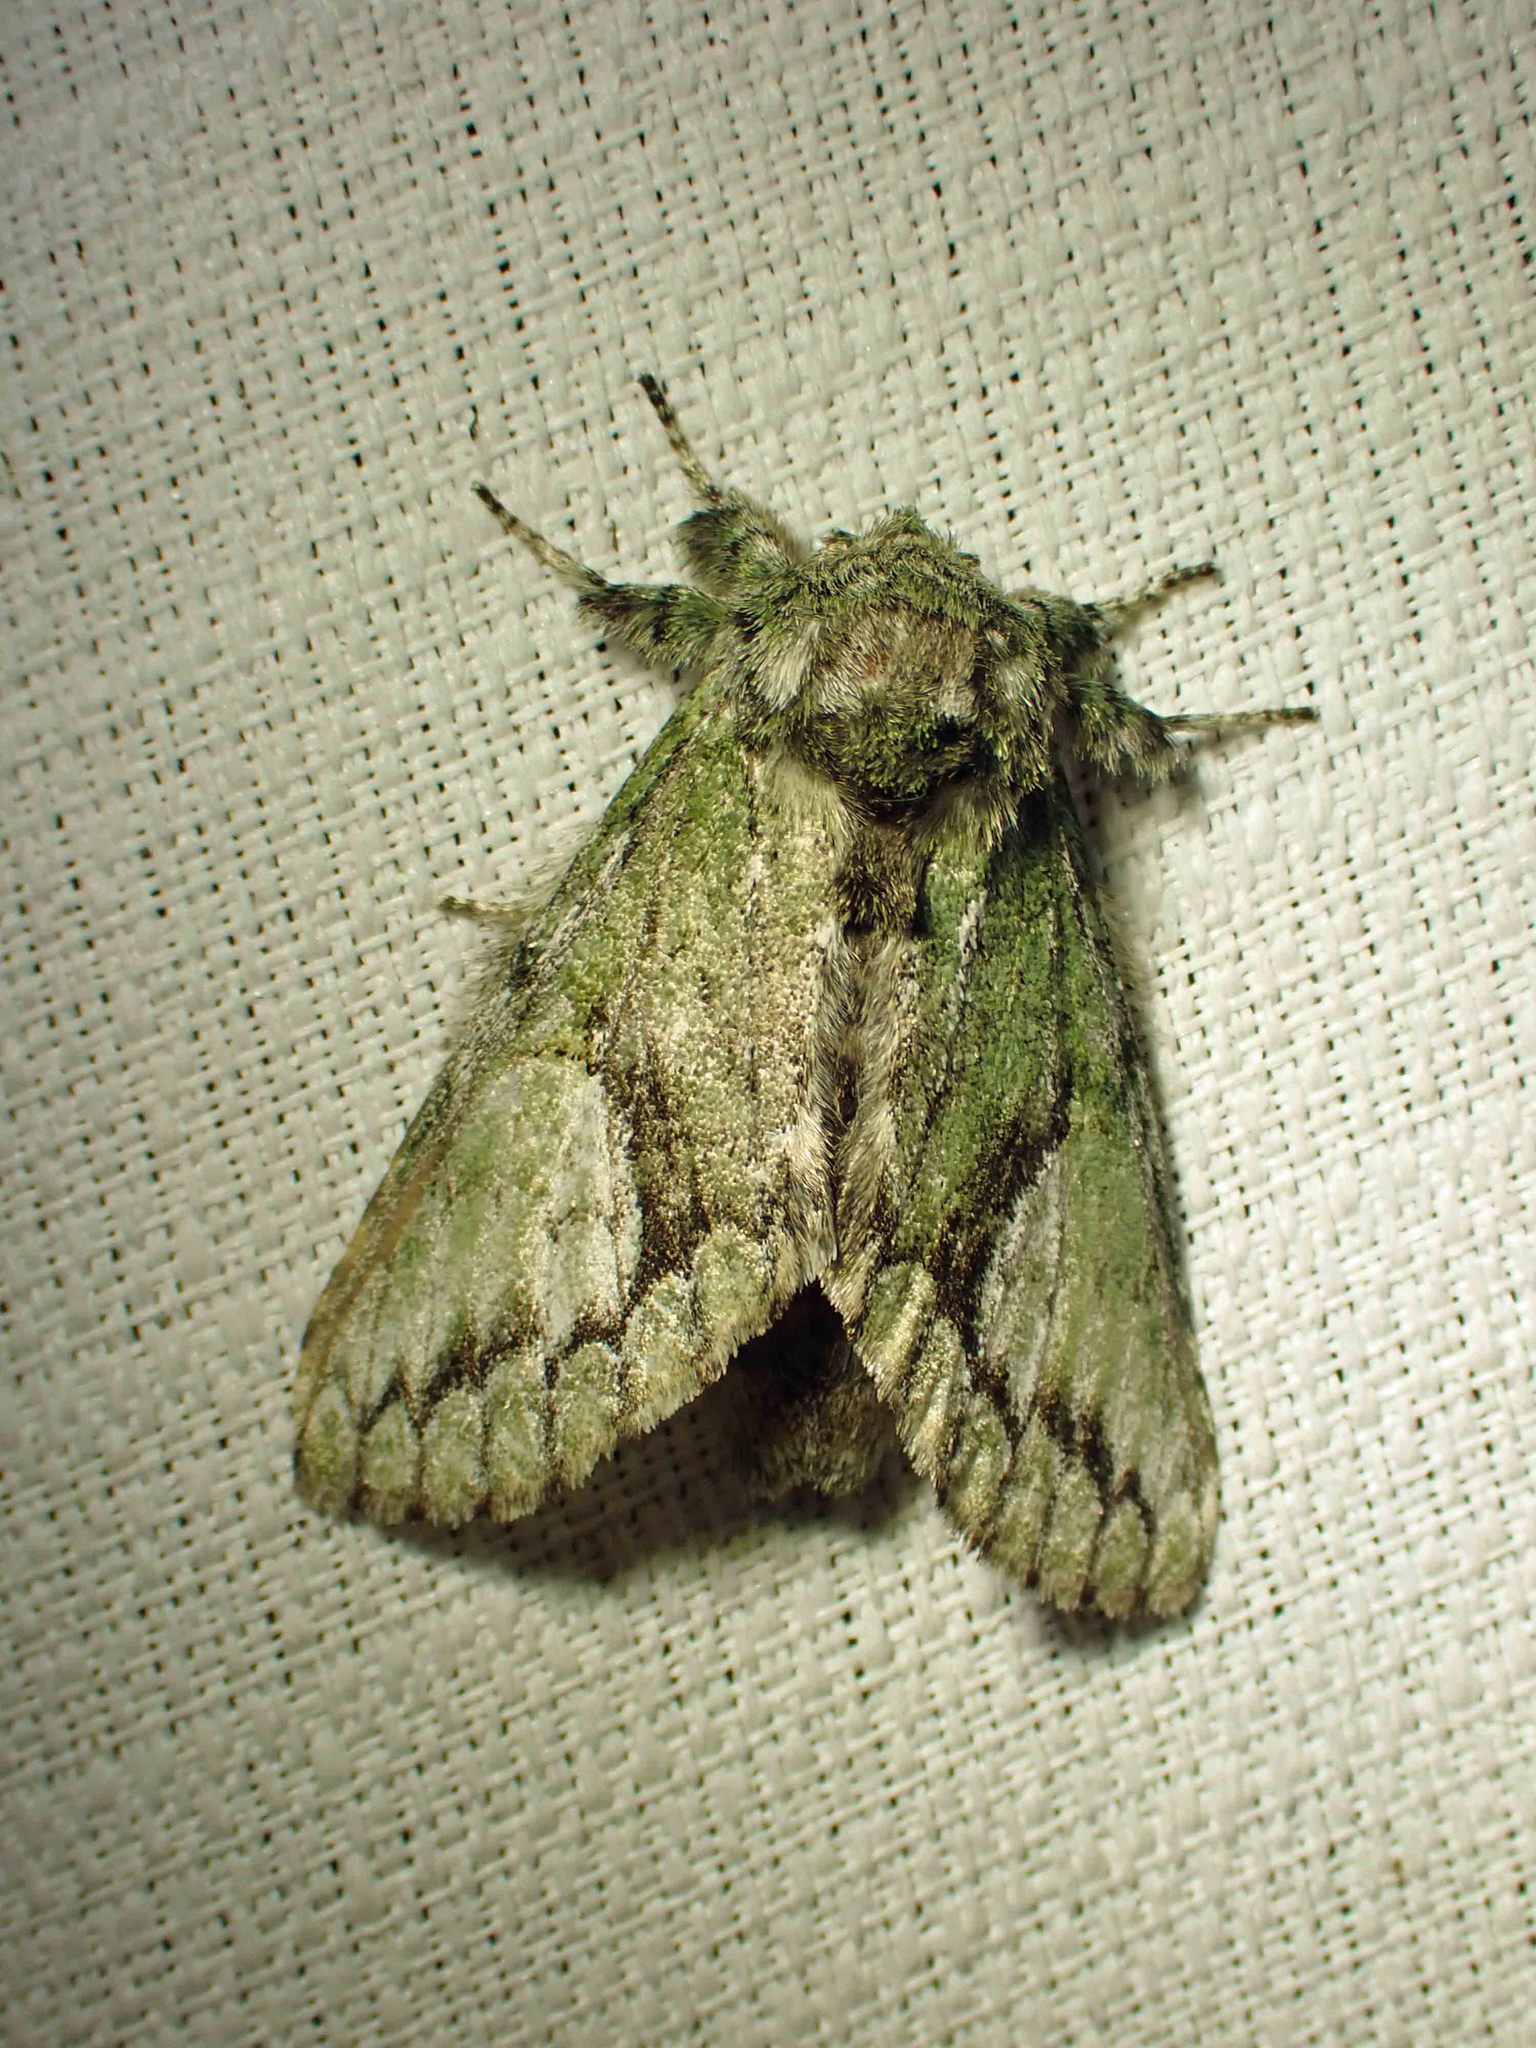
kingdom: Animalia
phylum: Arthropoda
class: Insecta
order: Lepidoptera
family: Notodontidae
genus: Heterocampa
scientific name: Heterocampa
